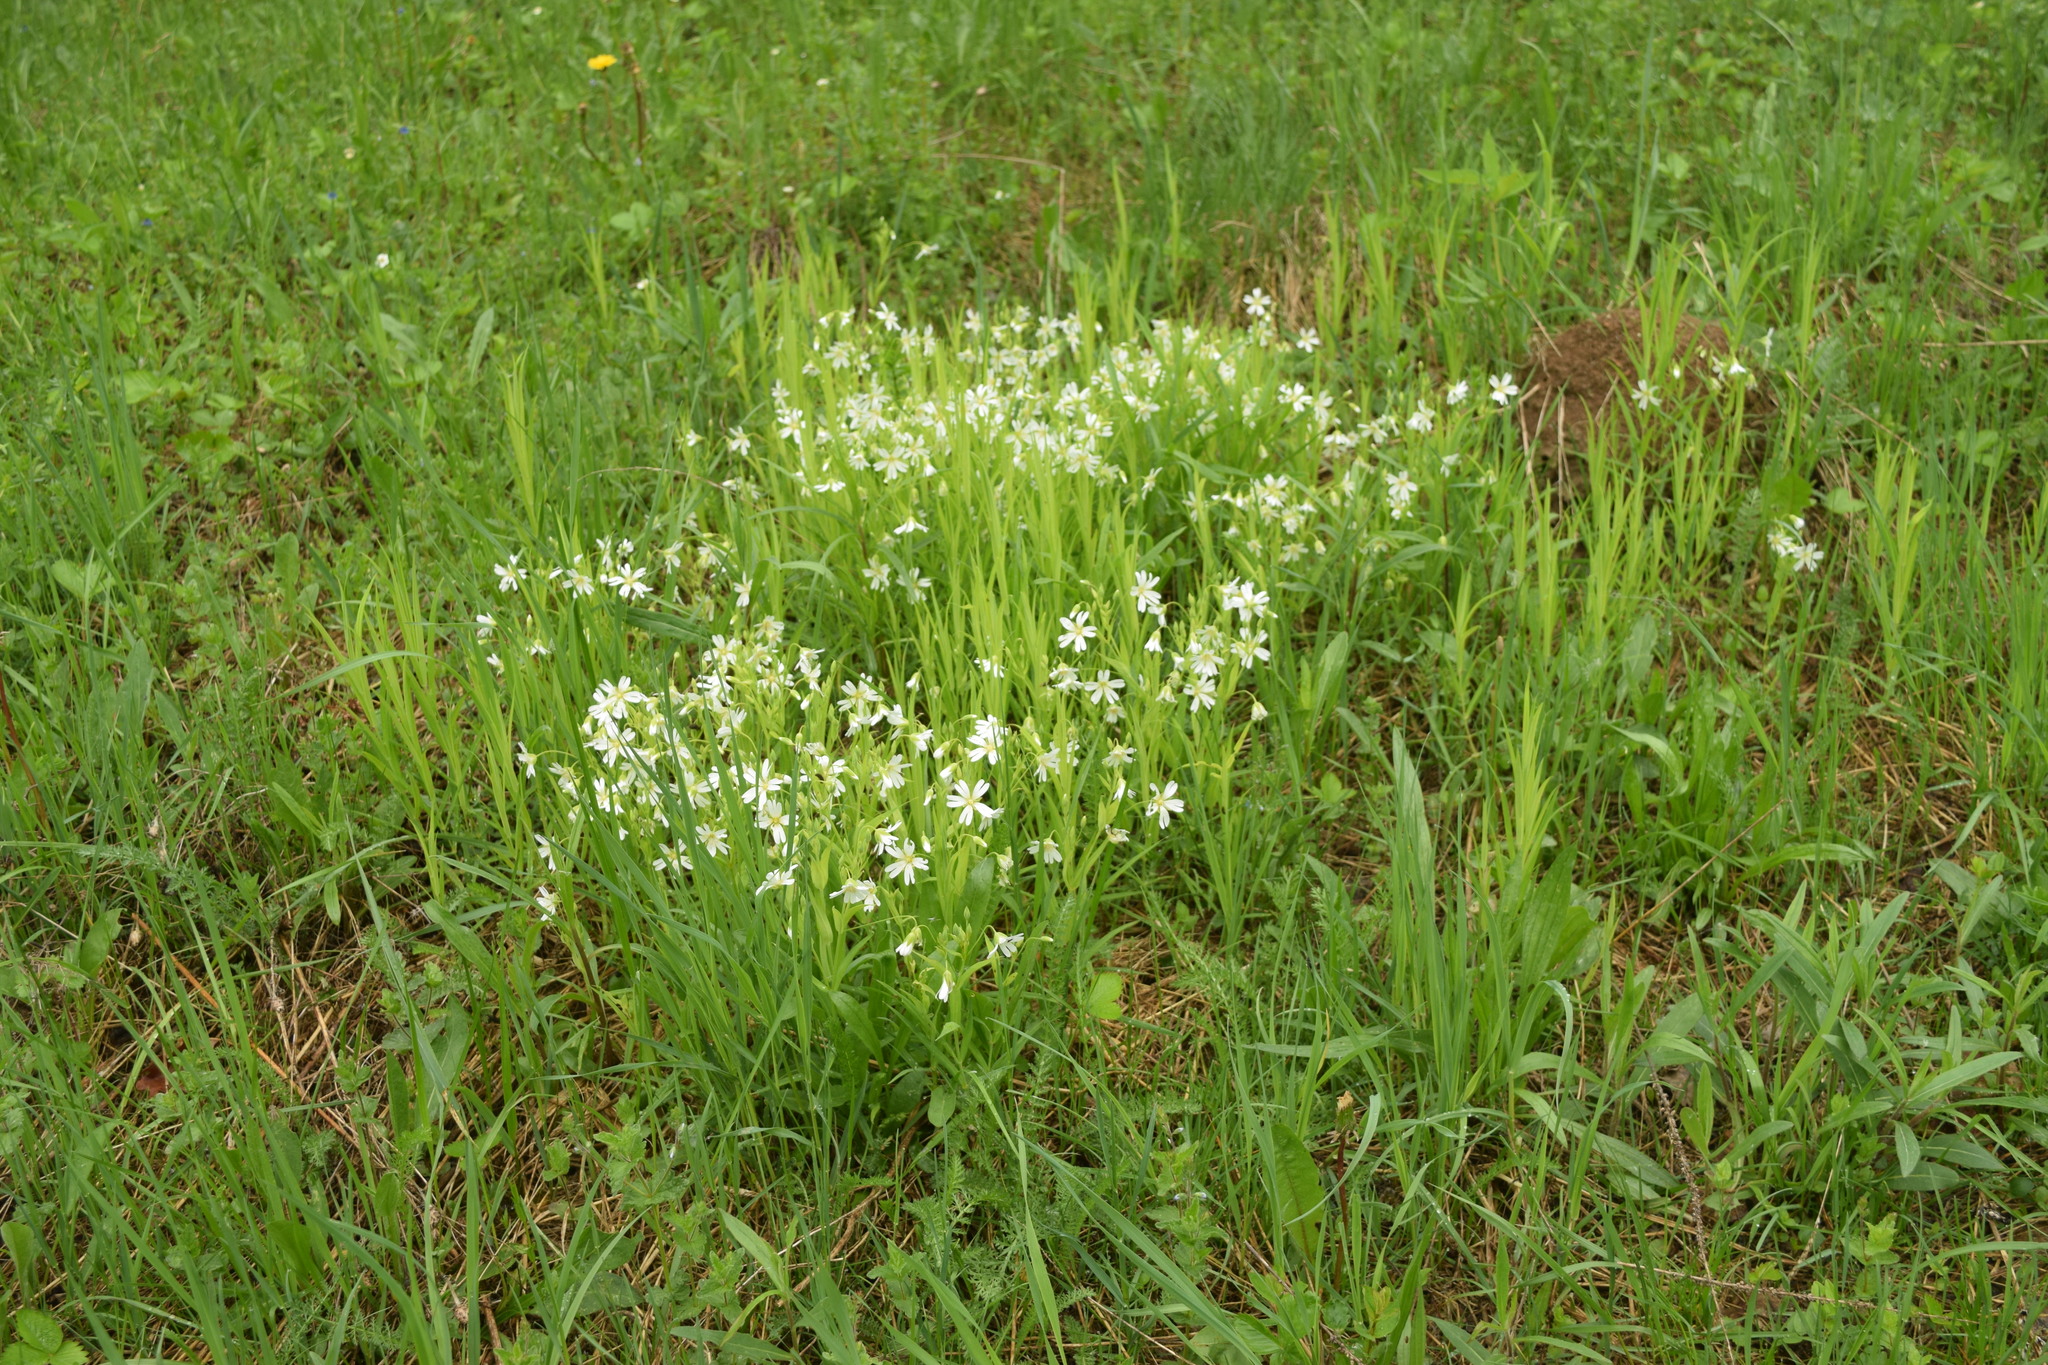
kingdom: Plantae
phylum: Tracheophyta
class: Magnoliopsida
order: Caryophyllales
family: Caryophyllaceae
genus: Rabelera
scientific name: Rabelera holostea
